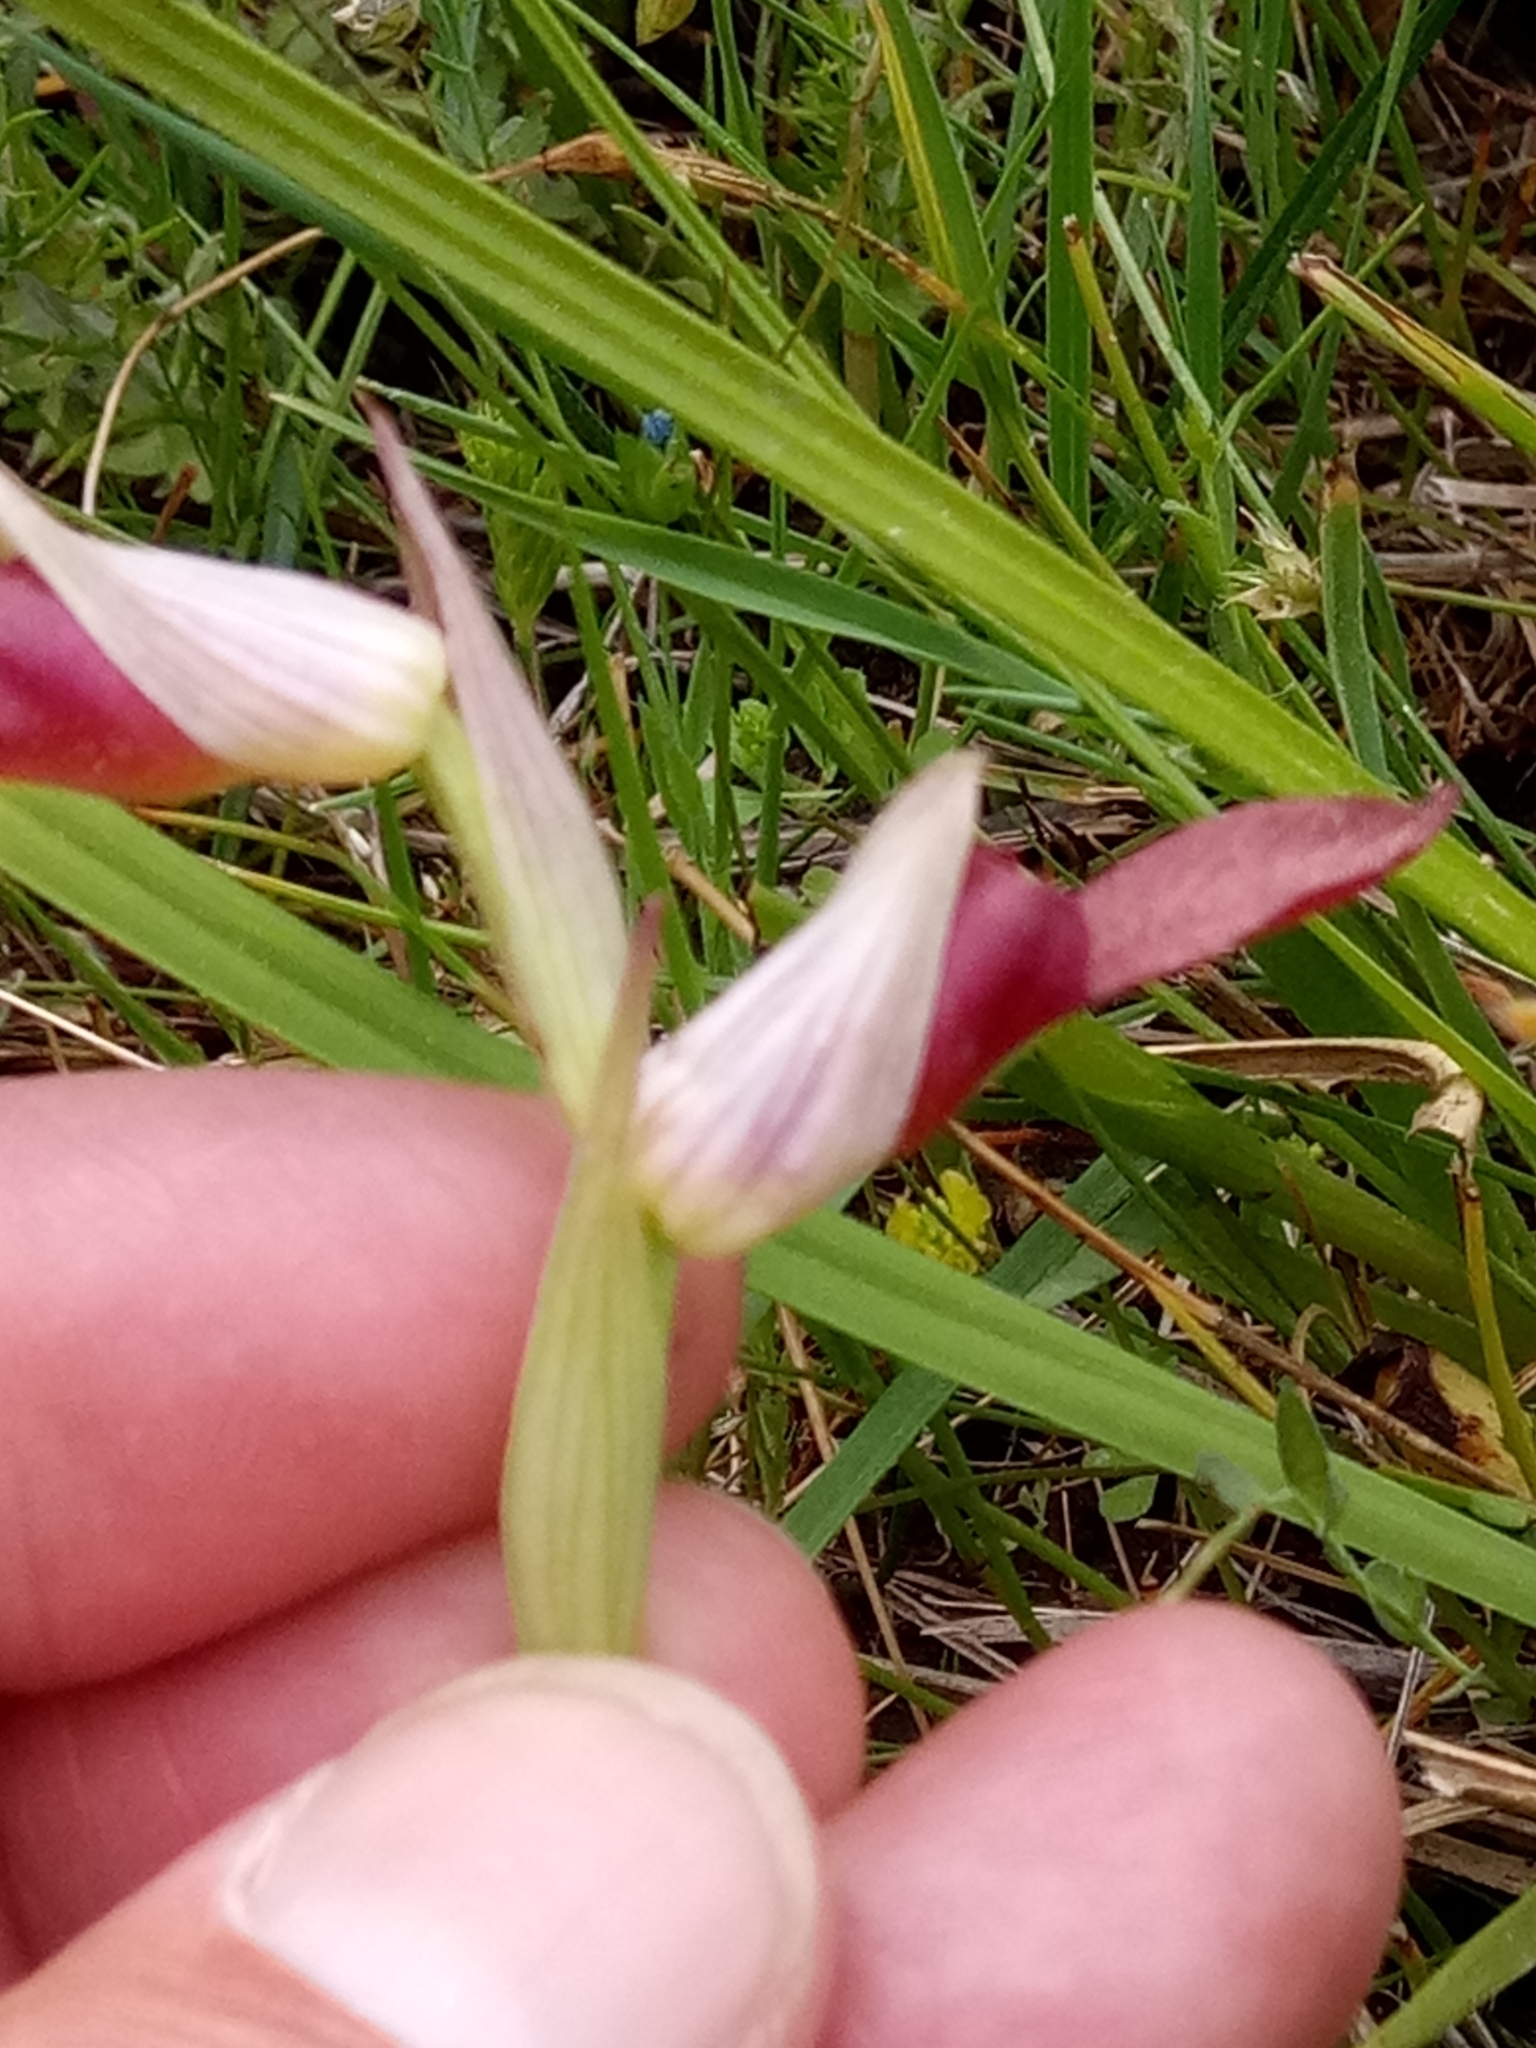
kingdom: Plantae
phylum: Tracheophyta
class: Liliopsida
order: Asparagales
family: Orchidaceae
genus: Serapias
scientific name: Serapias lingua
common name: Tongue-orchid
